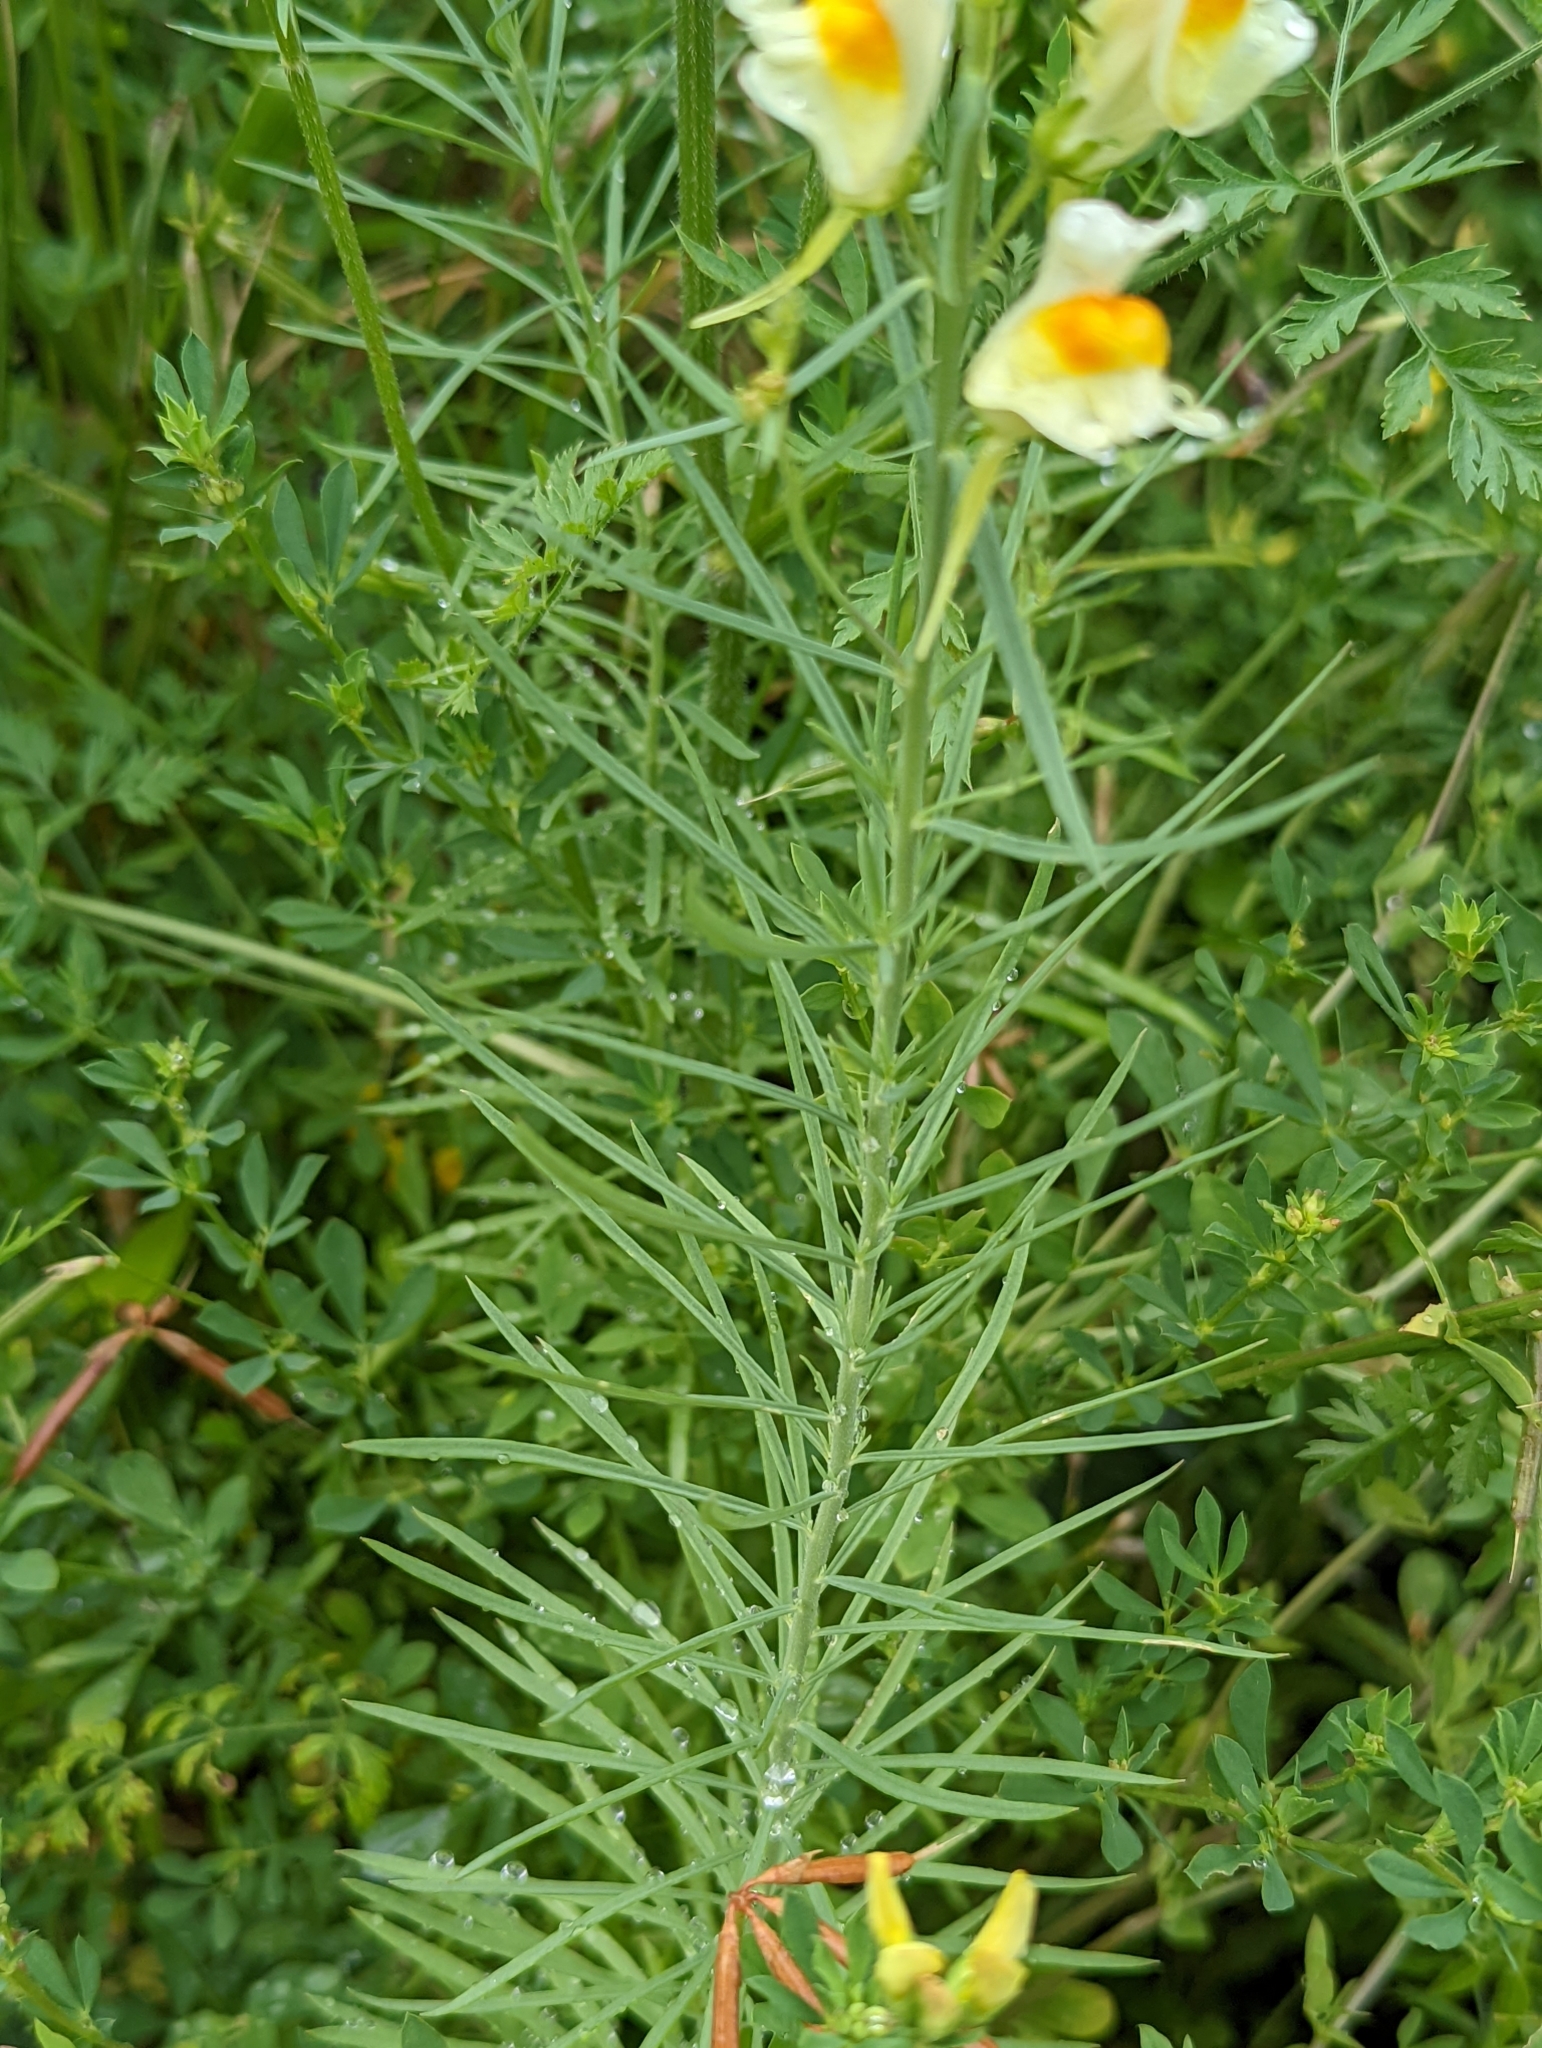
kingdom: Plantae
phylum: Tracheophyta
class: Magnoliopsida
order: Lamiales
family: Plantaginaceae
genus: Linaria
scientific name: Linaria vulgaris
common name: Butter and eggs
